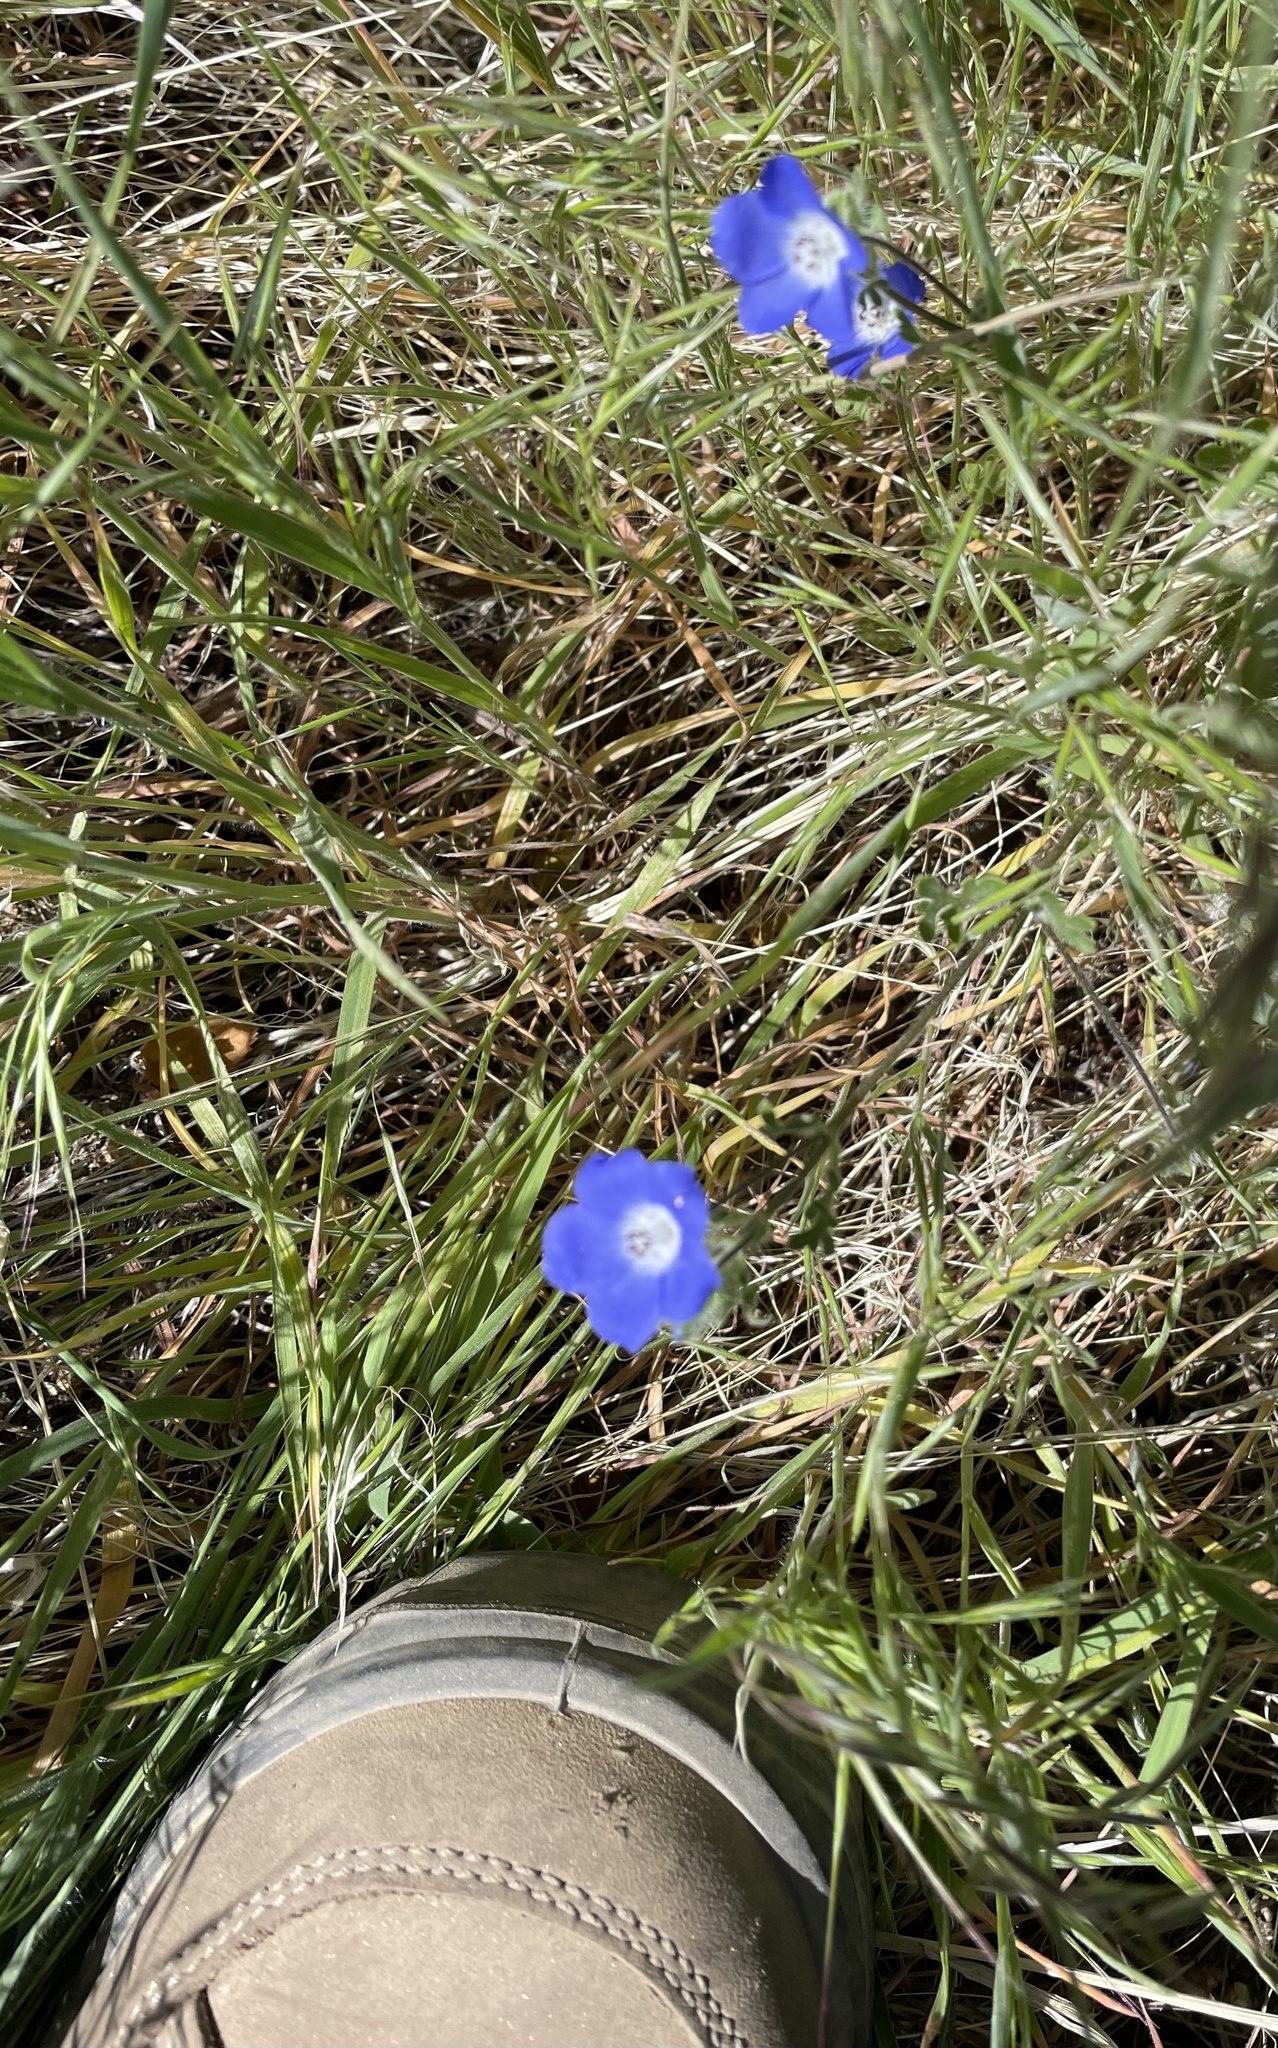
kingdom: Plantae
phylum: Tracheophyta
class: Magnoliopsida
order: Boraginales
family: Hydrophyllaceae
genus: Nemophila
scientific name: Nemophila menziesii
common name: Baby's-blue-eyes
